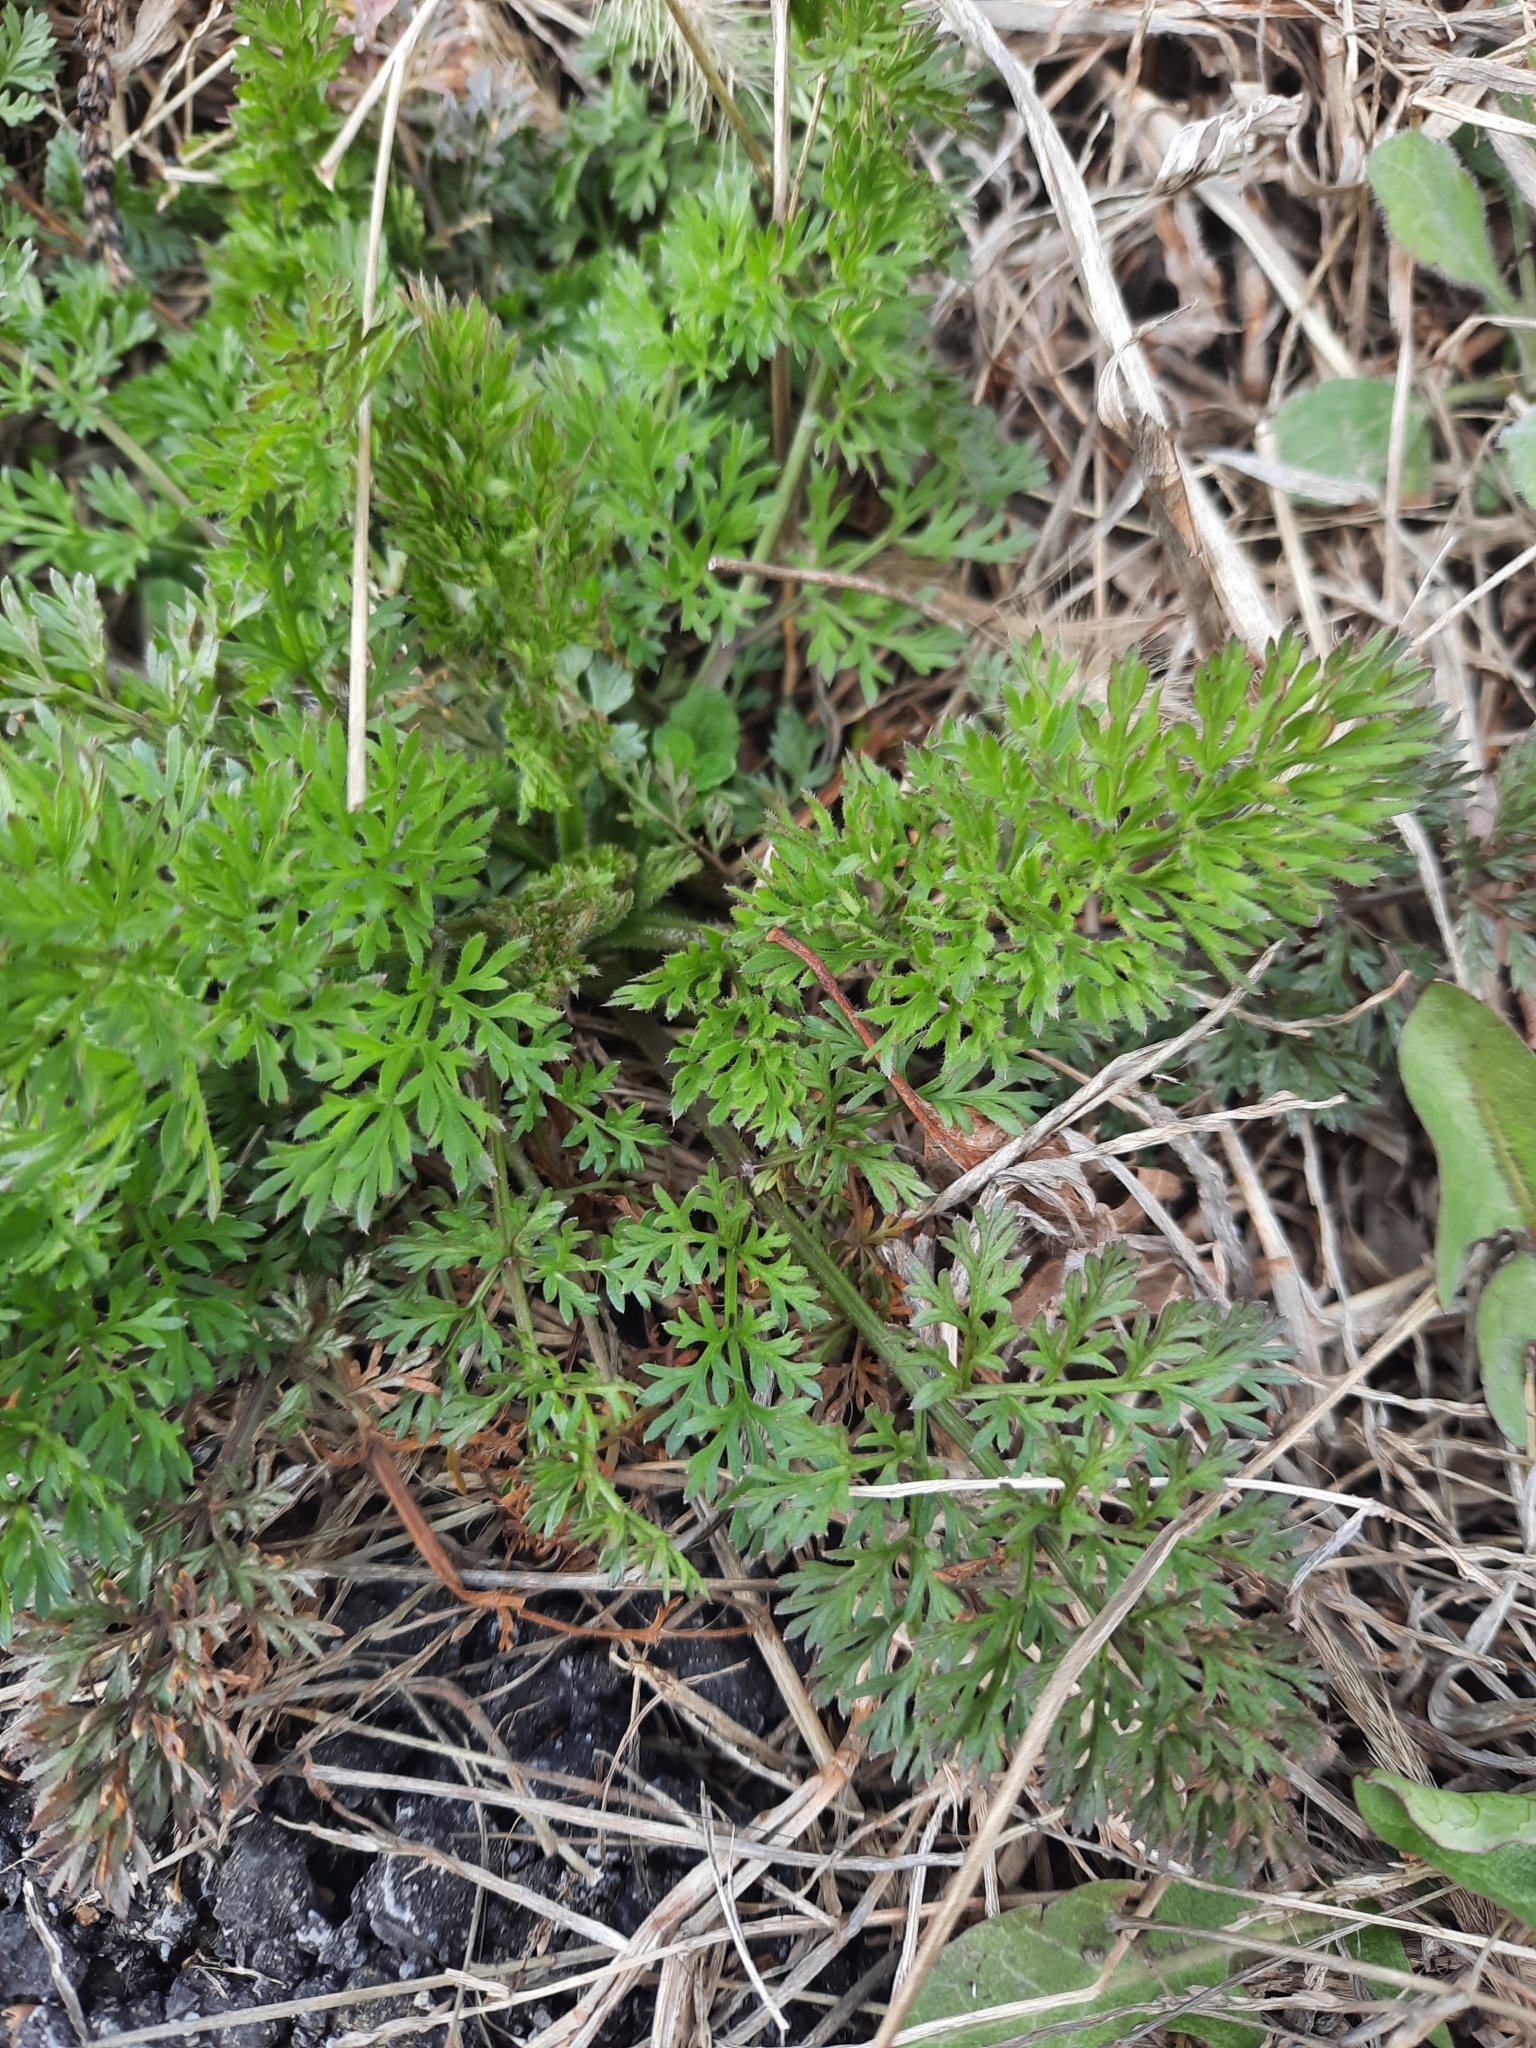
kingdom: Plantae
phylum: Tracheophyta
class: Magnoliopsida
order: Apiales
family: Apiaceae
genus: Daucus
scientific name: Daucus carota
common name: Wild carrot
